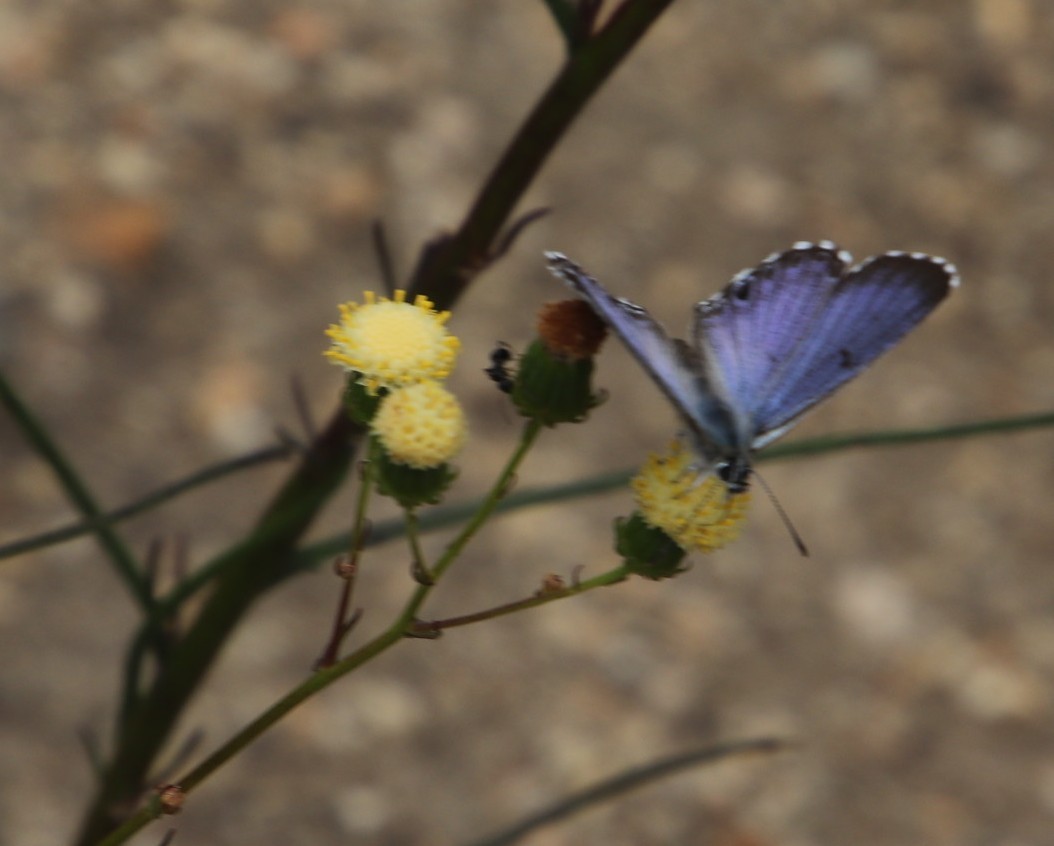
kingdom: Animalia
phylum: Arthropoda
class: Insecta
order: Lepidoptera
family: Lycaenidae
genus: Tarucus
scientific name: Tarucus thespis
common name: Vivid dotted blue
